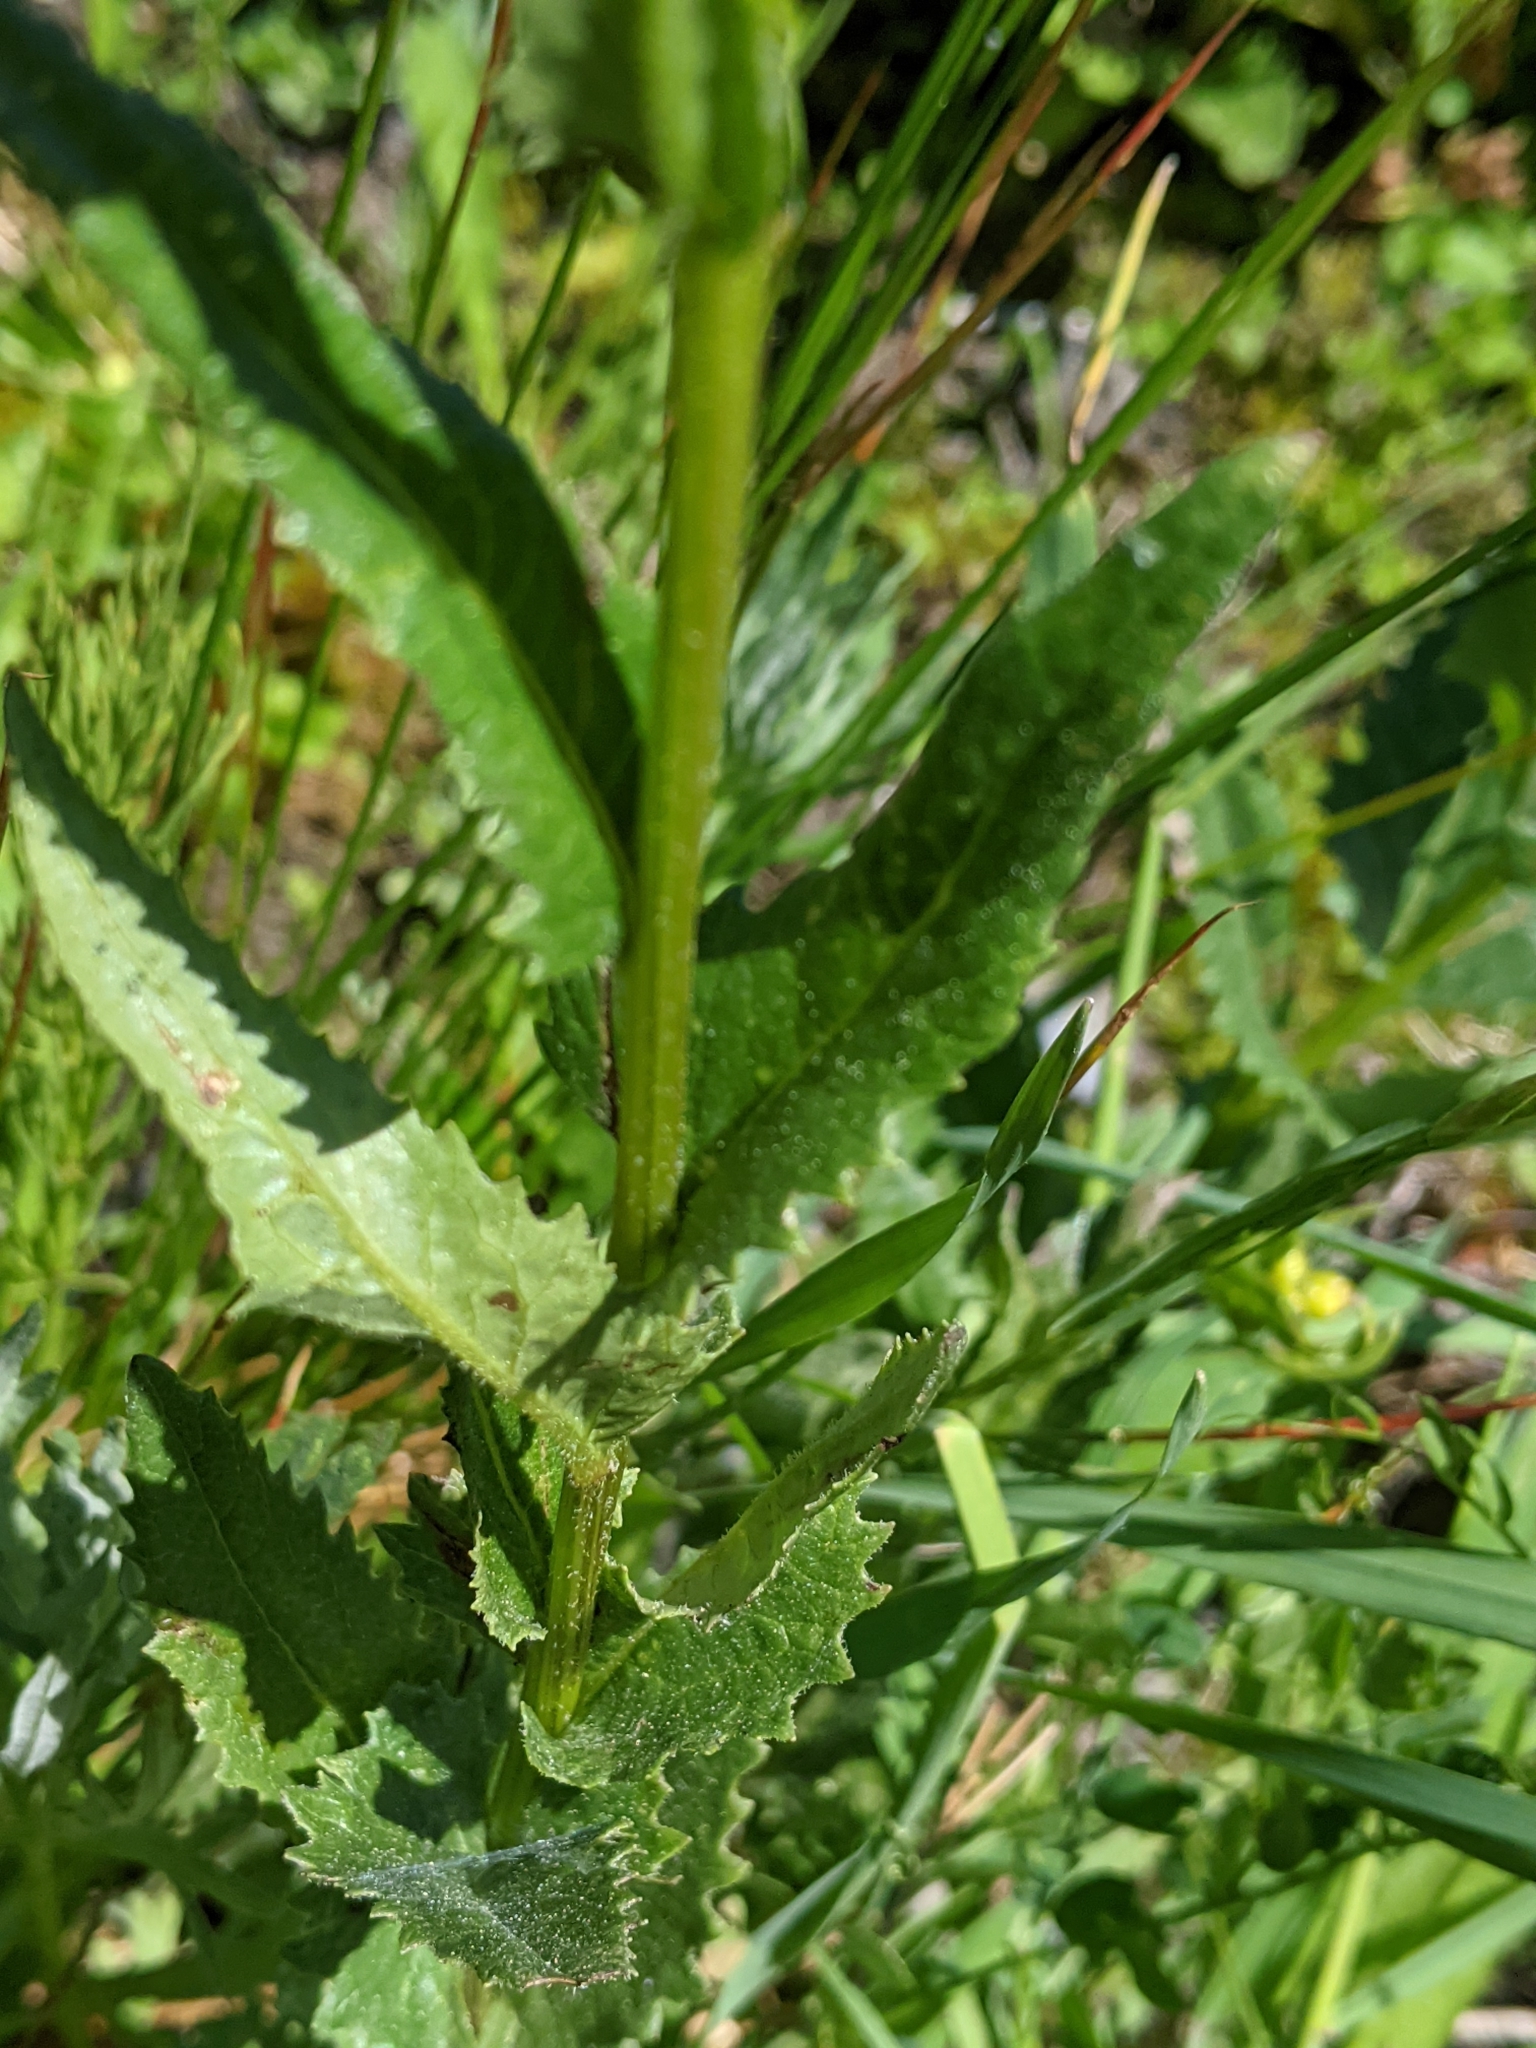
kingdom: Plantae
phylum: Tracheophyta
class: Magnoliopsida
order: Asterales
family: Asteraceae
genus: Senecio
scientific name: Senecio triangularis
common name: Arrowleaf butterweed
